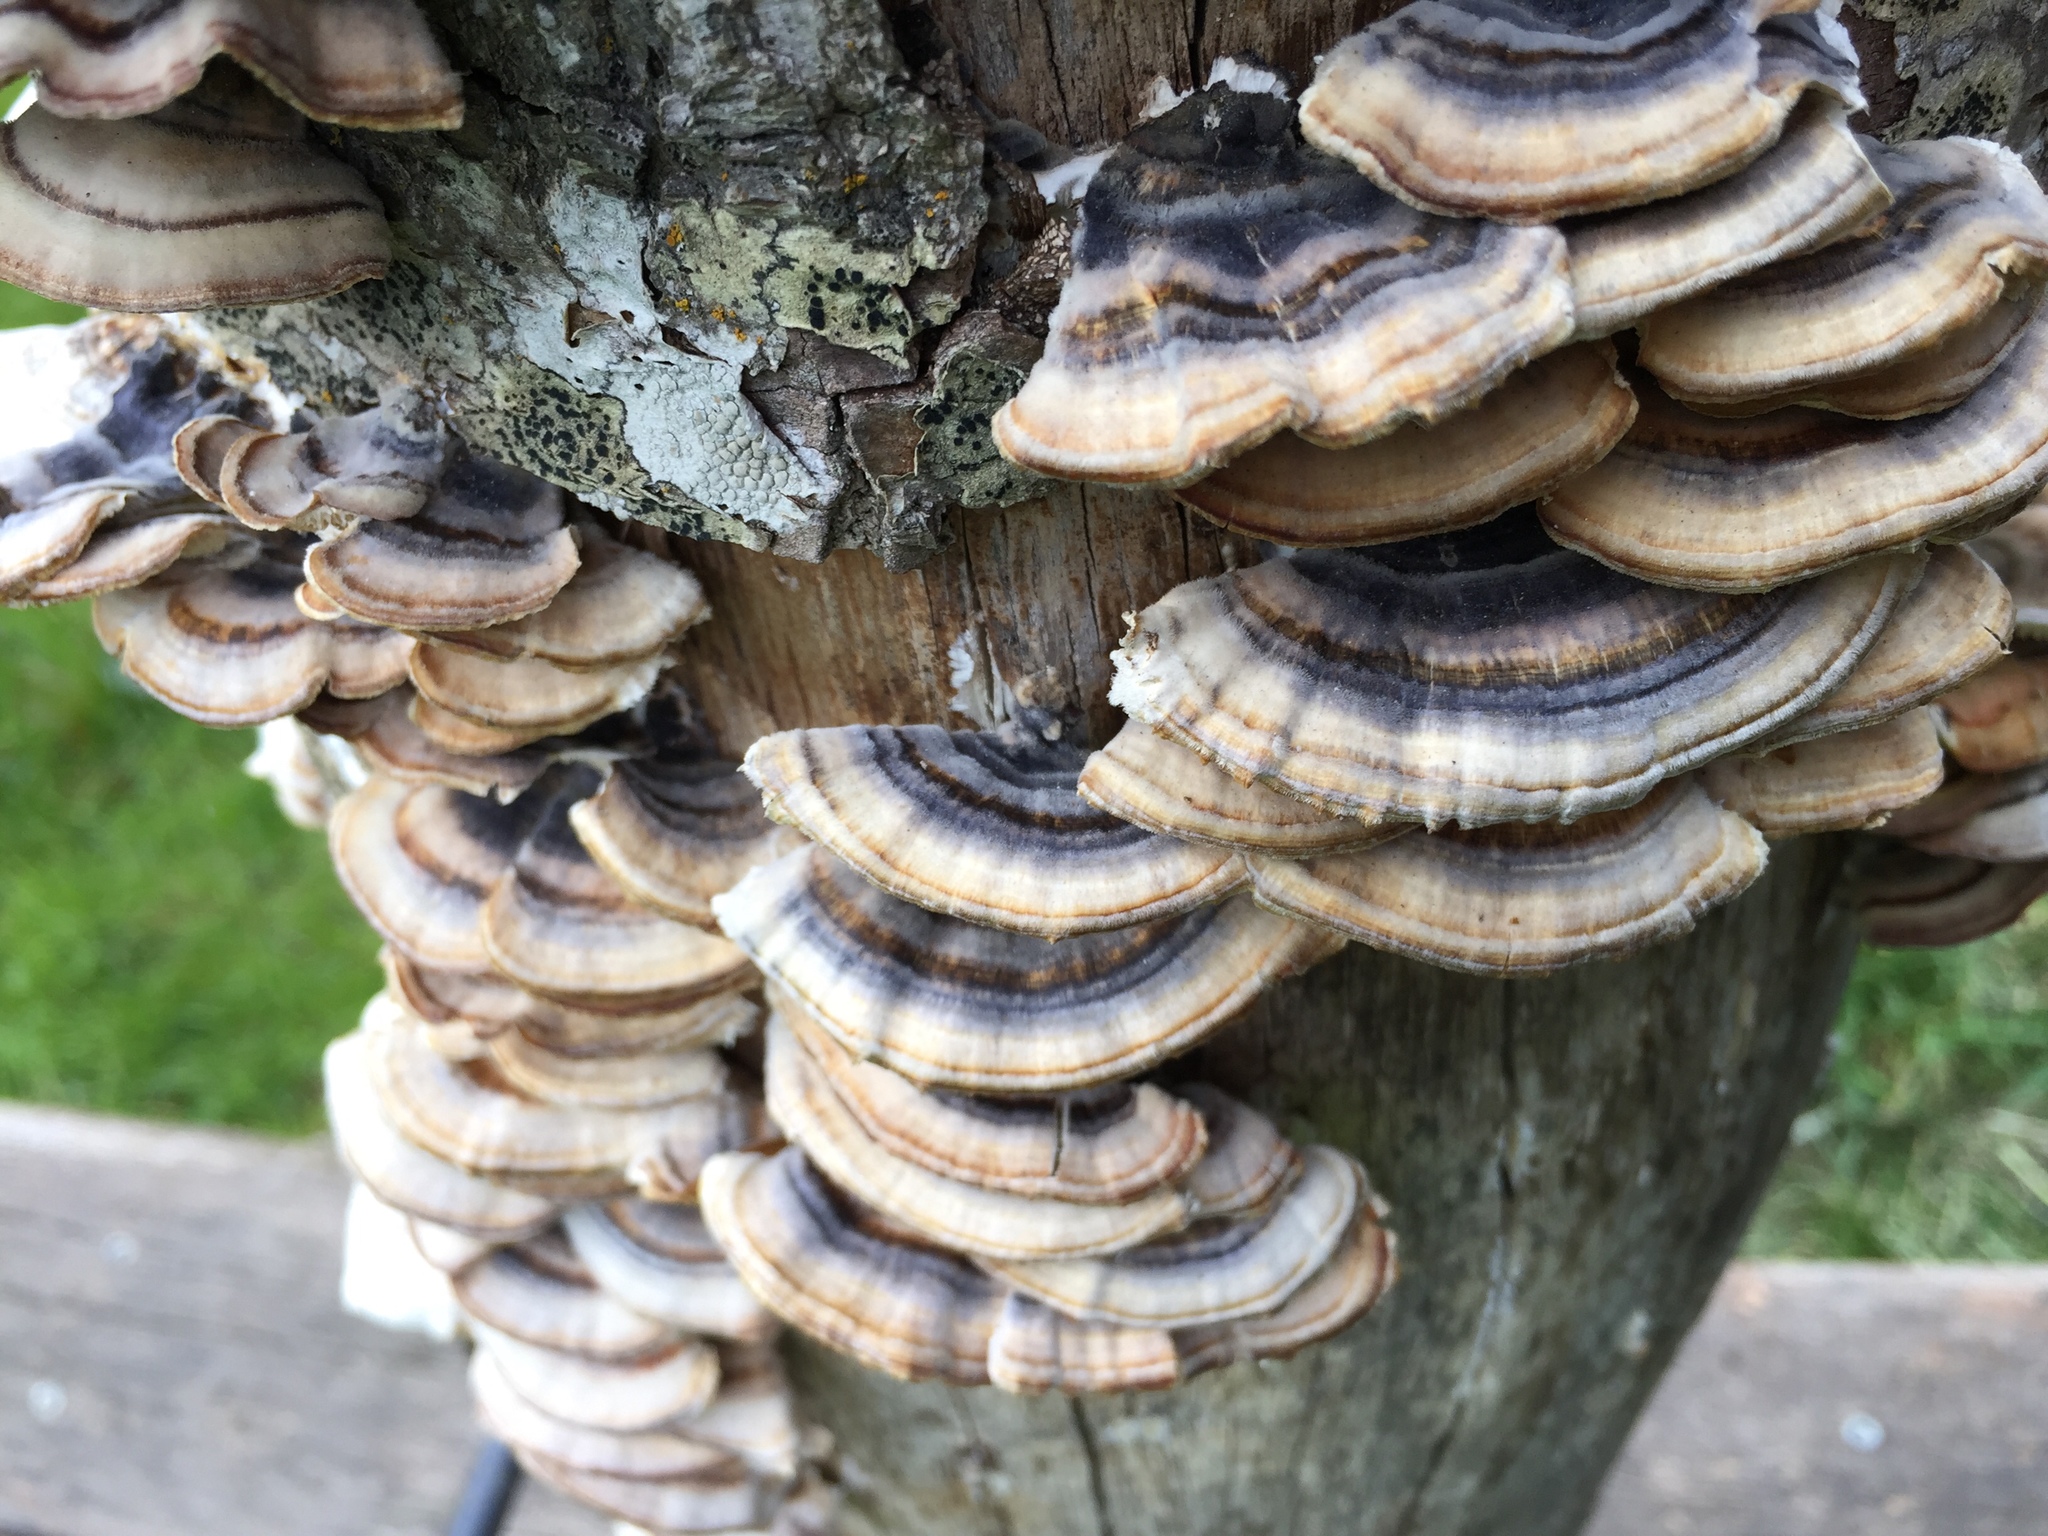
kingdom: Fungi
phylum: Basidiomycota
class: Agaricomycetes
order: Polyporales
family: Polyporaceae
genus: Trametes
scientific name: Trametes versicolor
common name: Turkeytail
